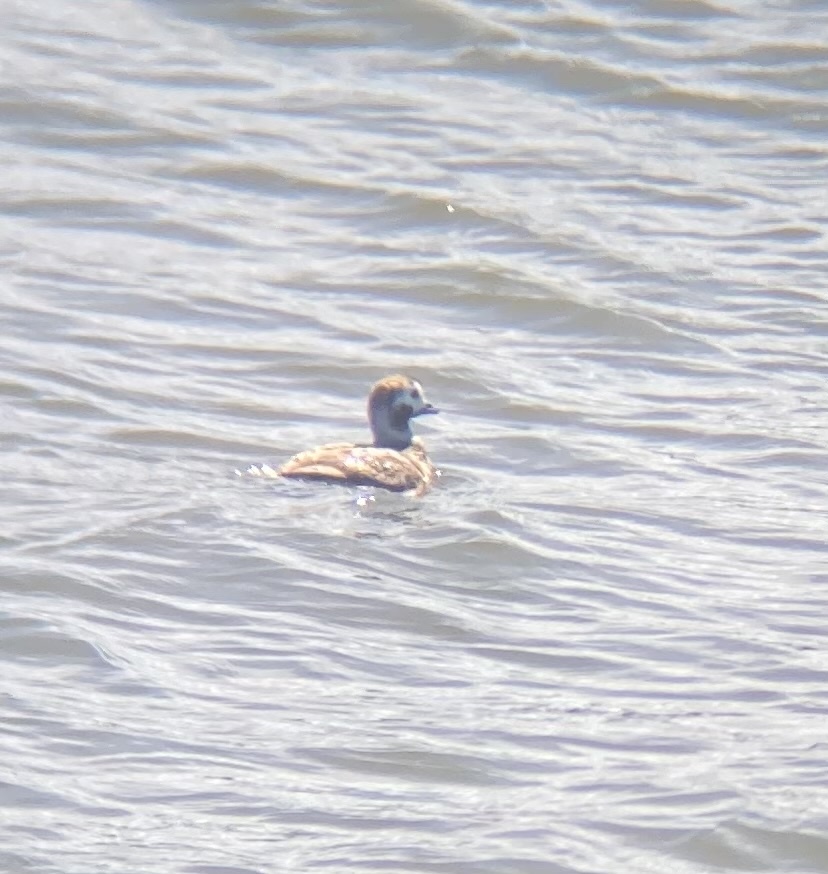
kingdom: Animalia
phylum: Chordata
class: Aves
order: Anseriformes
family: Anatidae
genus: Clangula
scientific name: Clangula hyemalis
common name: Long-tailed duck
